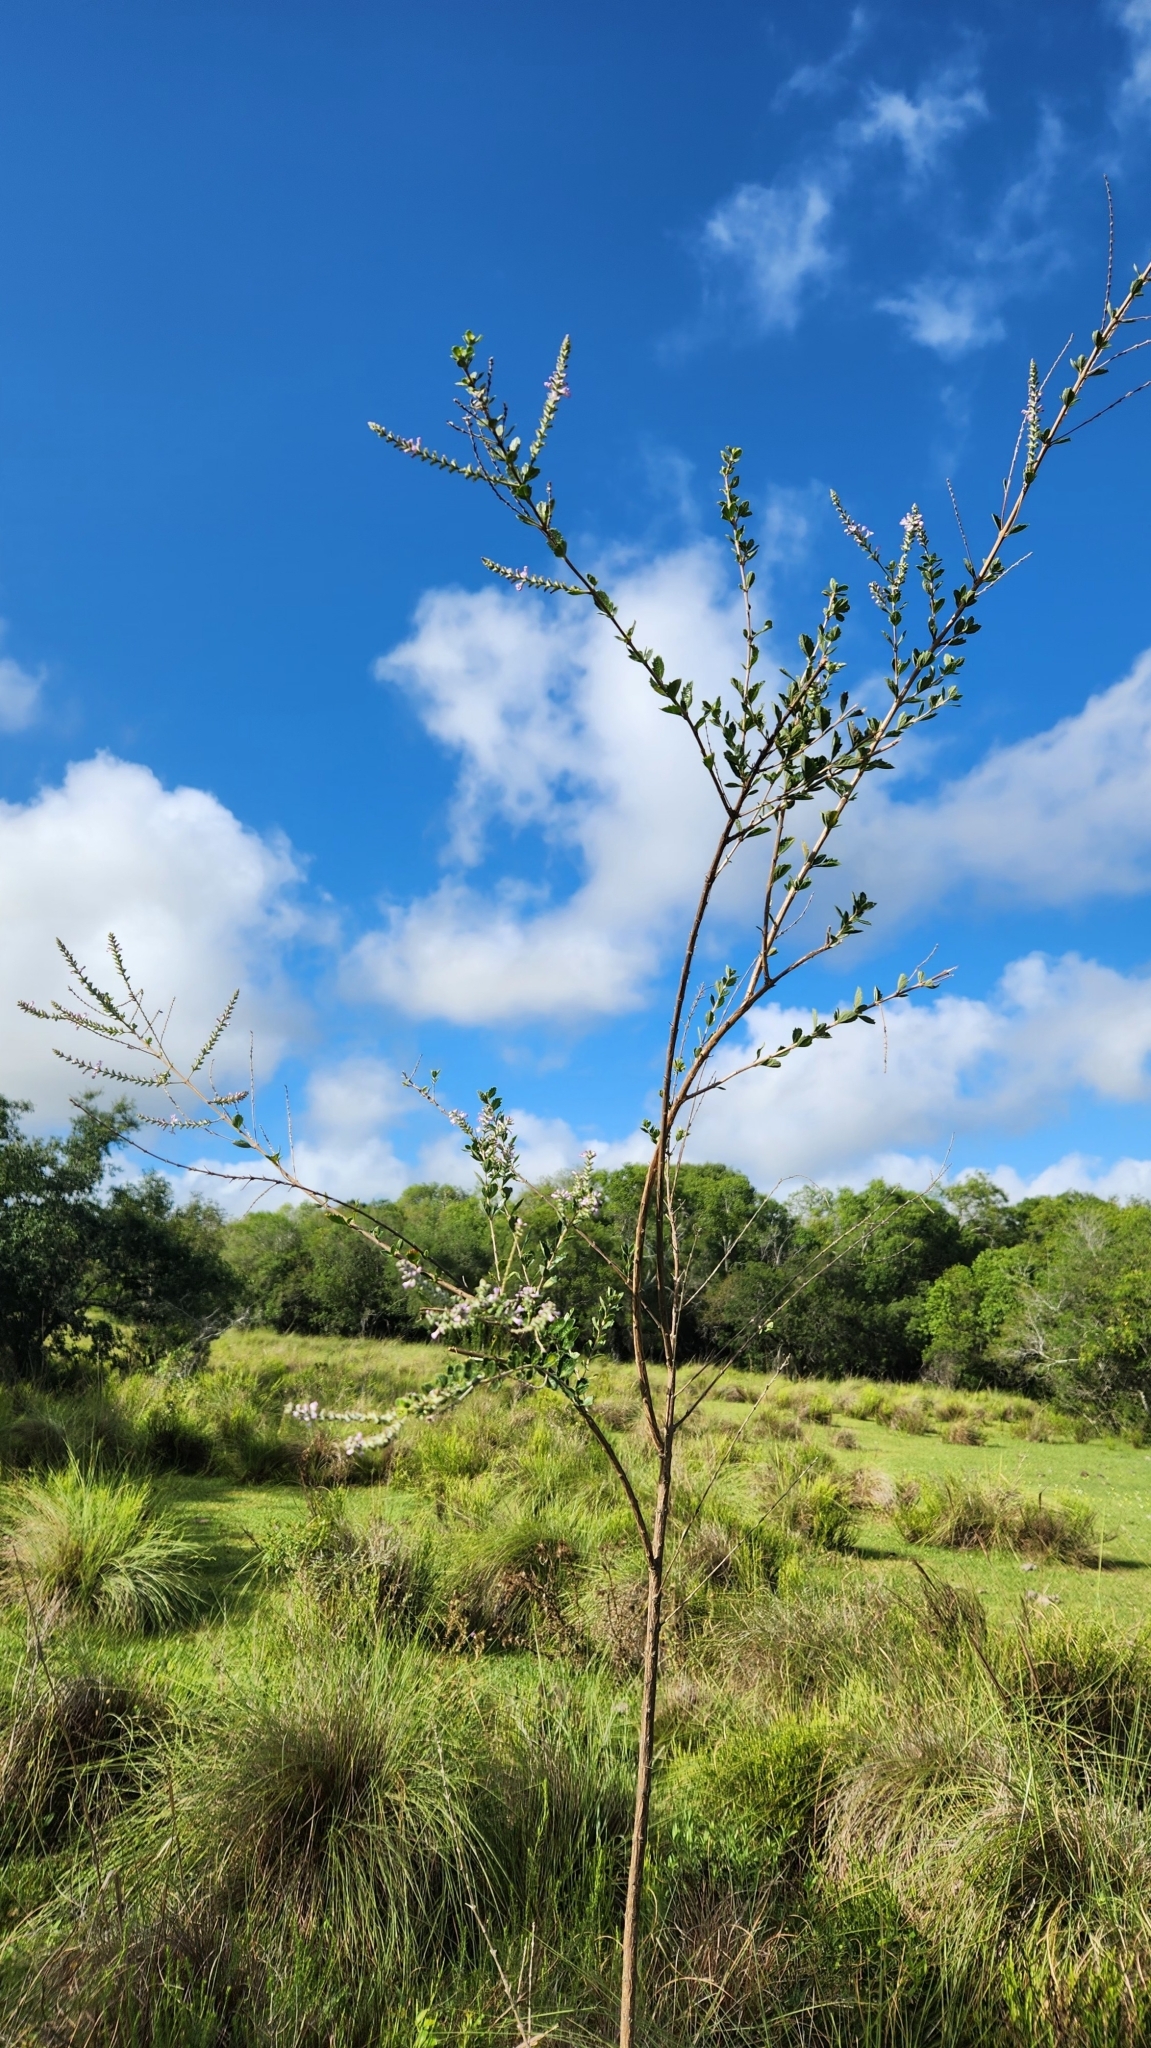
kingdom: Plantae
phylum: Tracheophyta
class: Magnoliopsida
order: Lamiales
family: Verbenaceae
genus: Aloysia
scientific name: Aloysia chamaedryfolia
